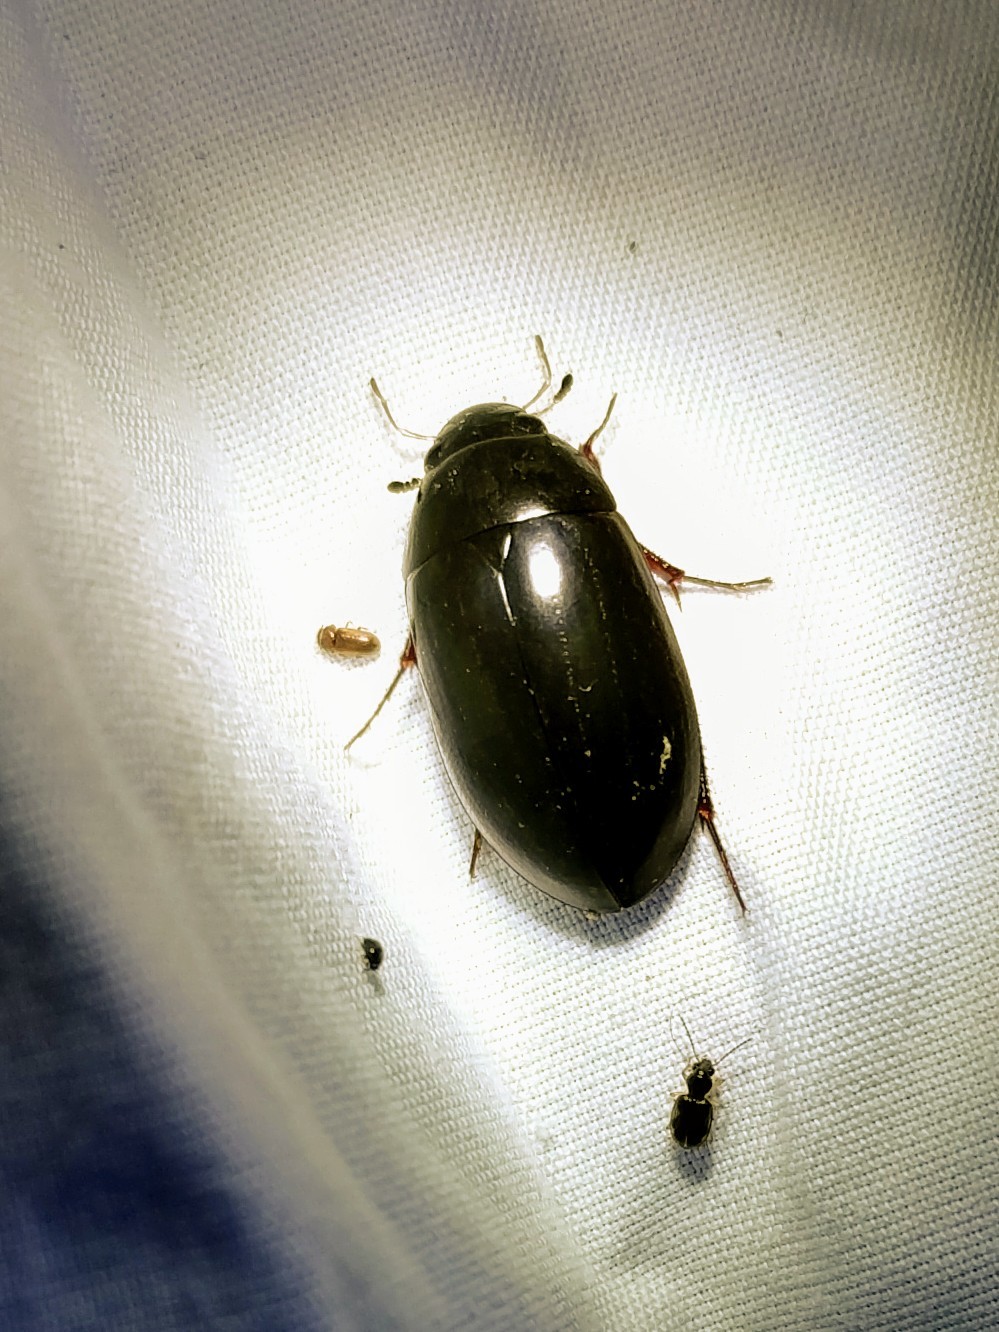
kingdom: Animalia
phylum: Arthropoda
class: Insecta
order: Coleoptera
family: Hydrophilidae
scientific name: Hydrophilidae
